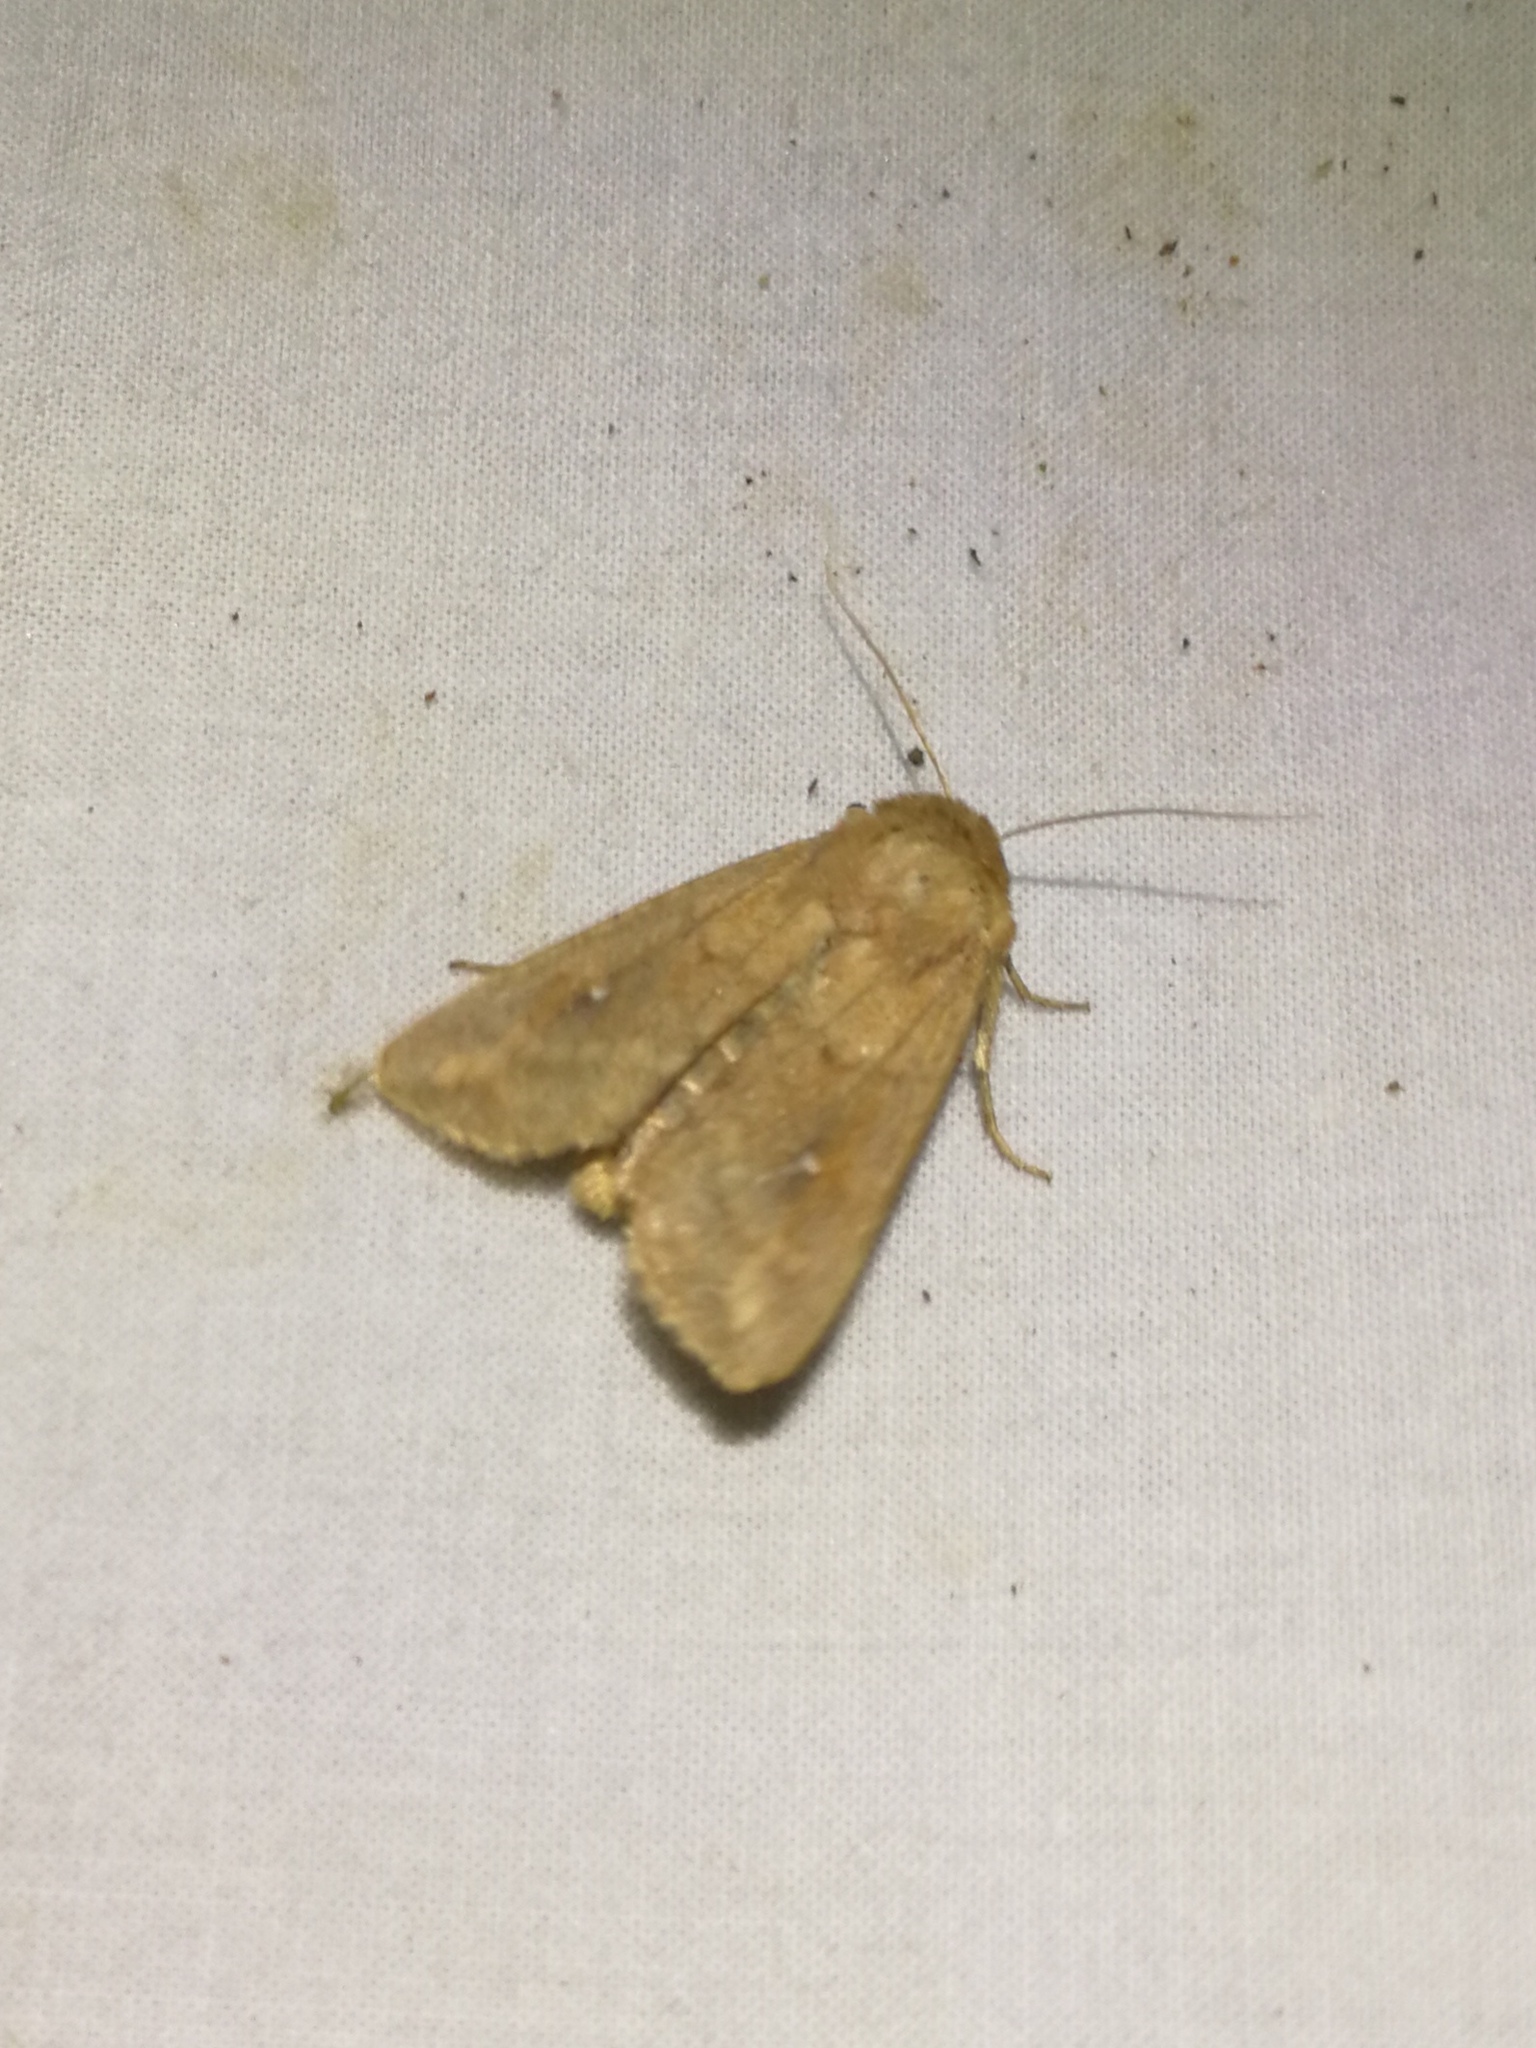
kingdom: Animalia
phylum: Arthropoda
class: Insecta
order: Lepidoptera
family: Noctuidae
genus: Mythimna
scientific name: Mythimna albipuncta
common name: White-point
